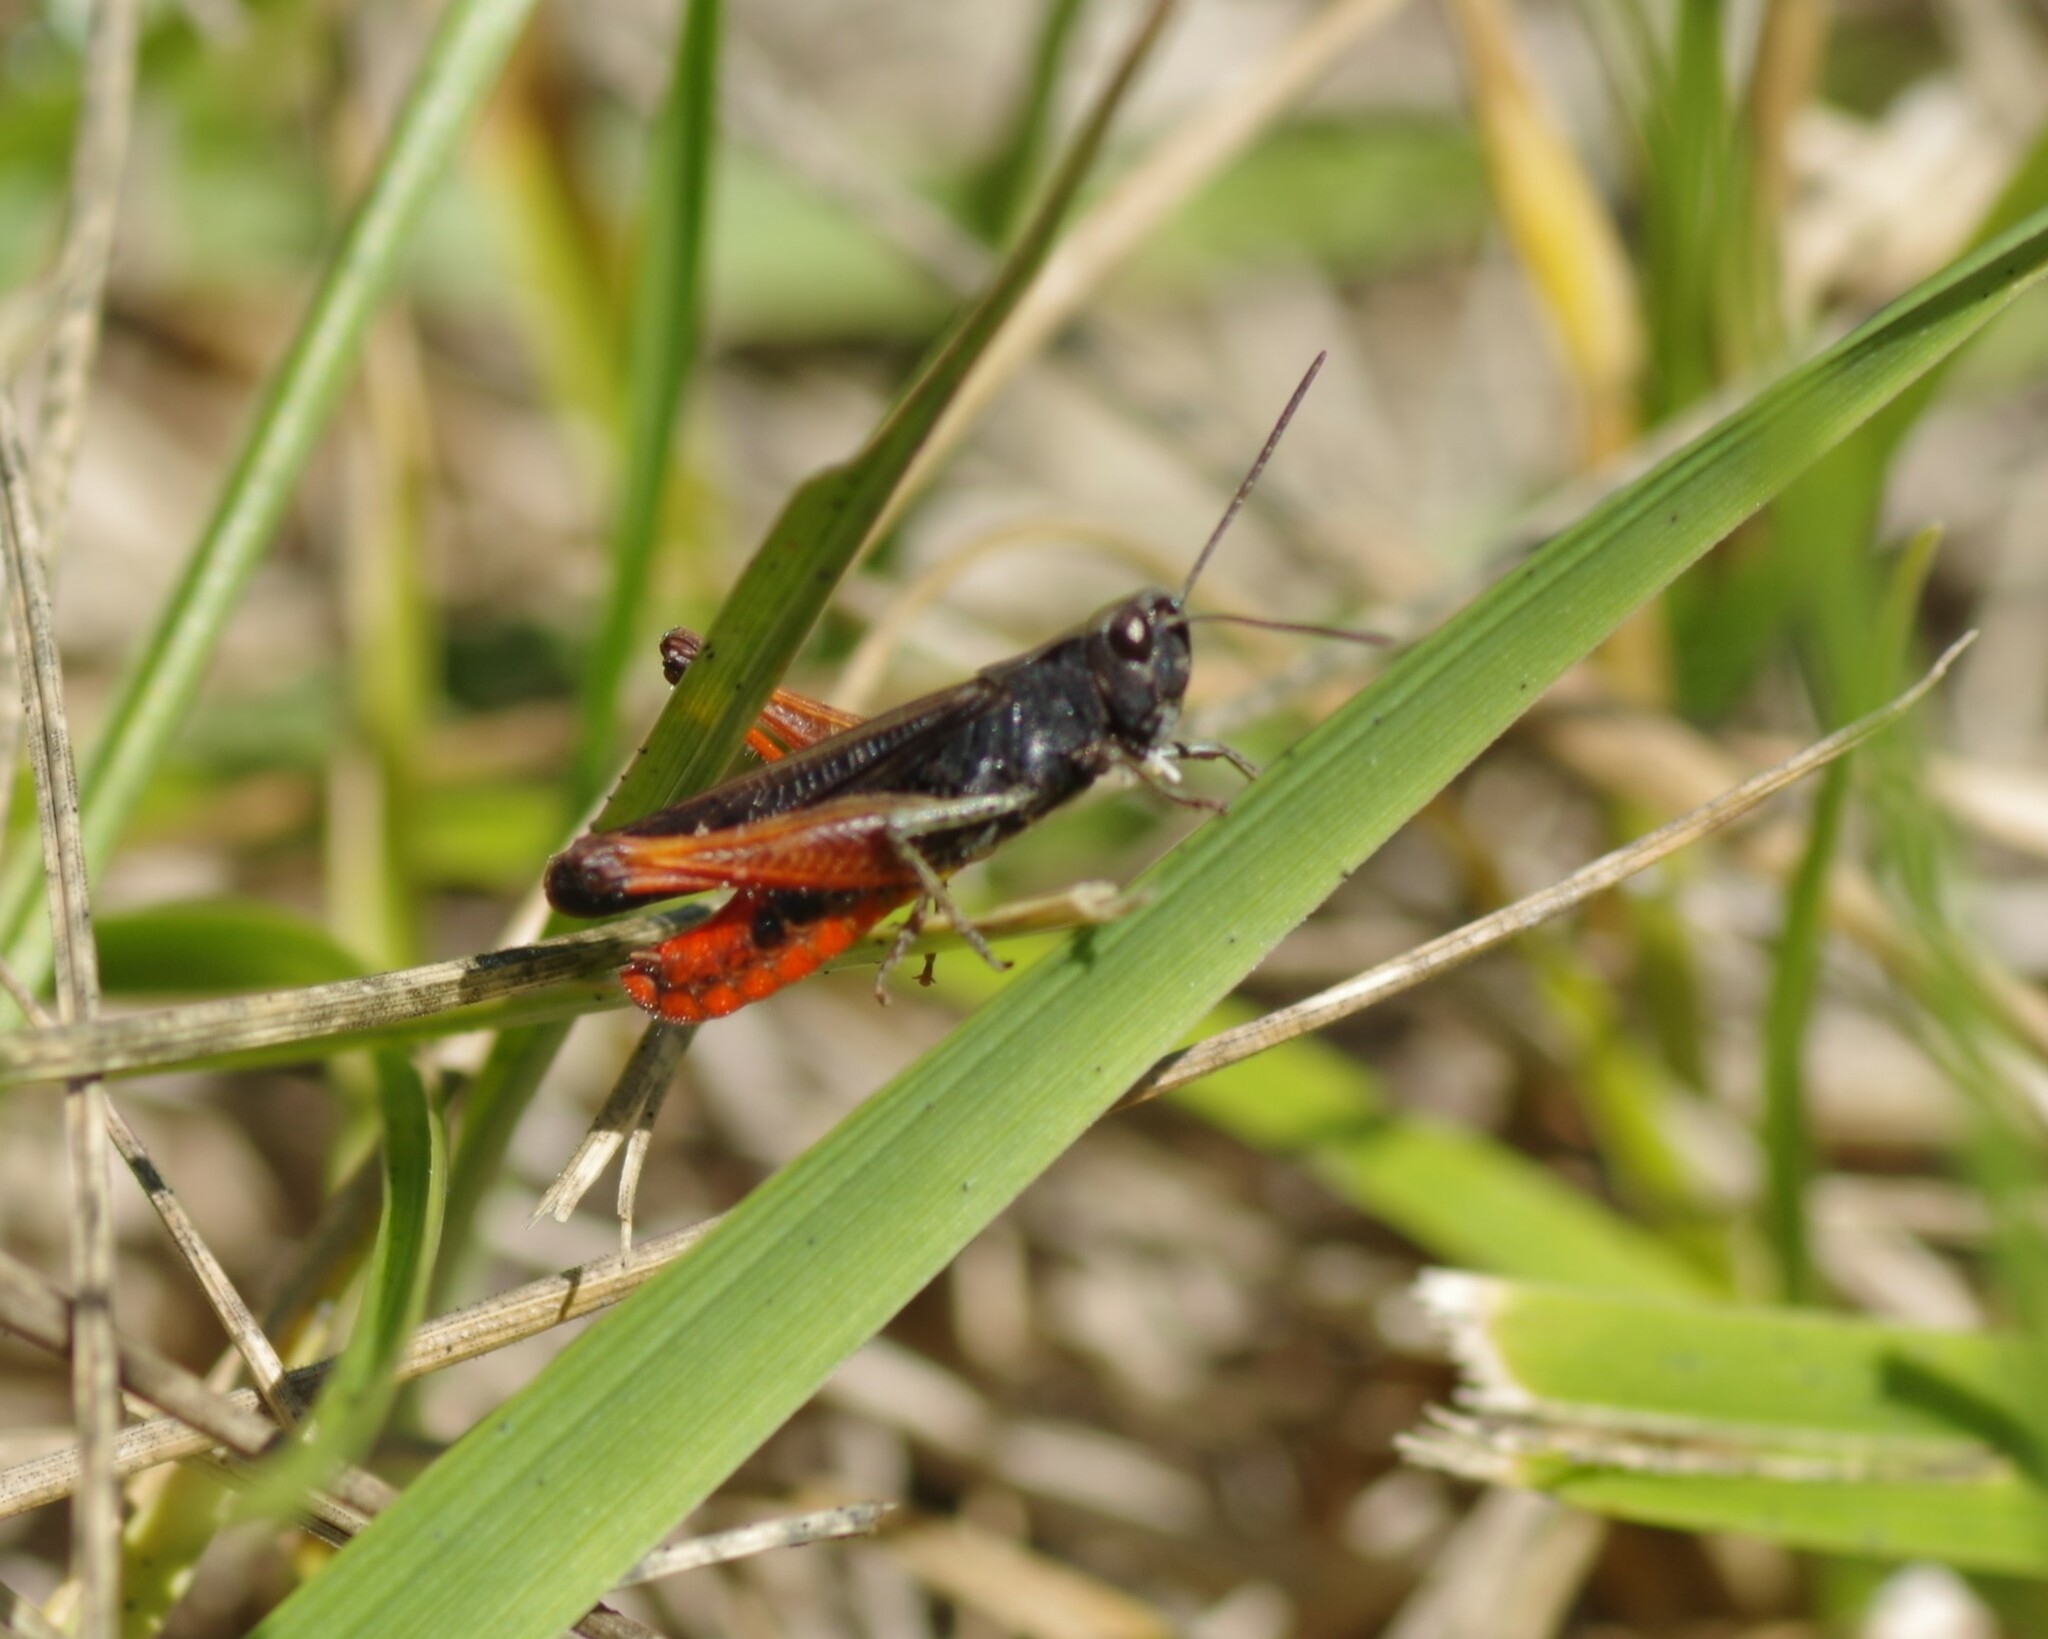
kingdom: Animalia
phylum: Arthropoda
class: Insecta
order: Orthoptera
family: Acrididae
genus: Omocestus
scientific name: Omocestus rufipes
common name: Woodland grasshopper
